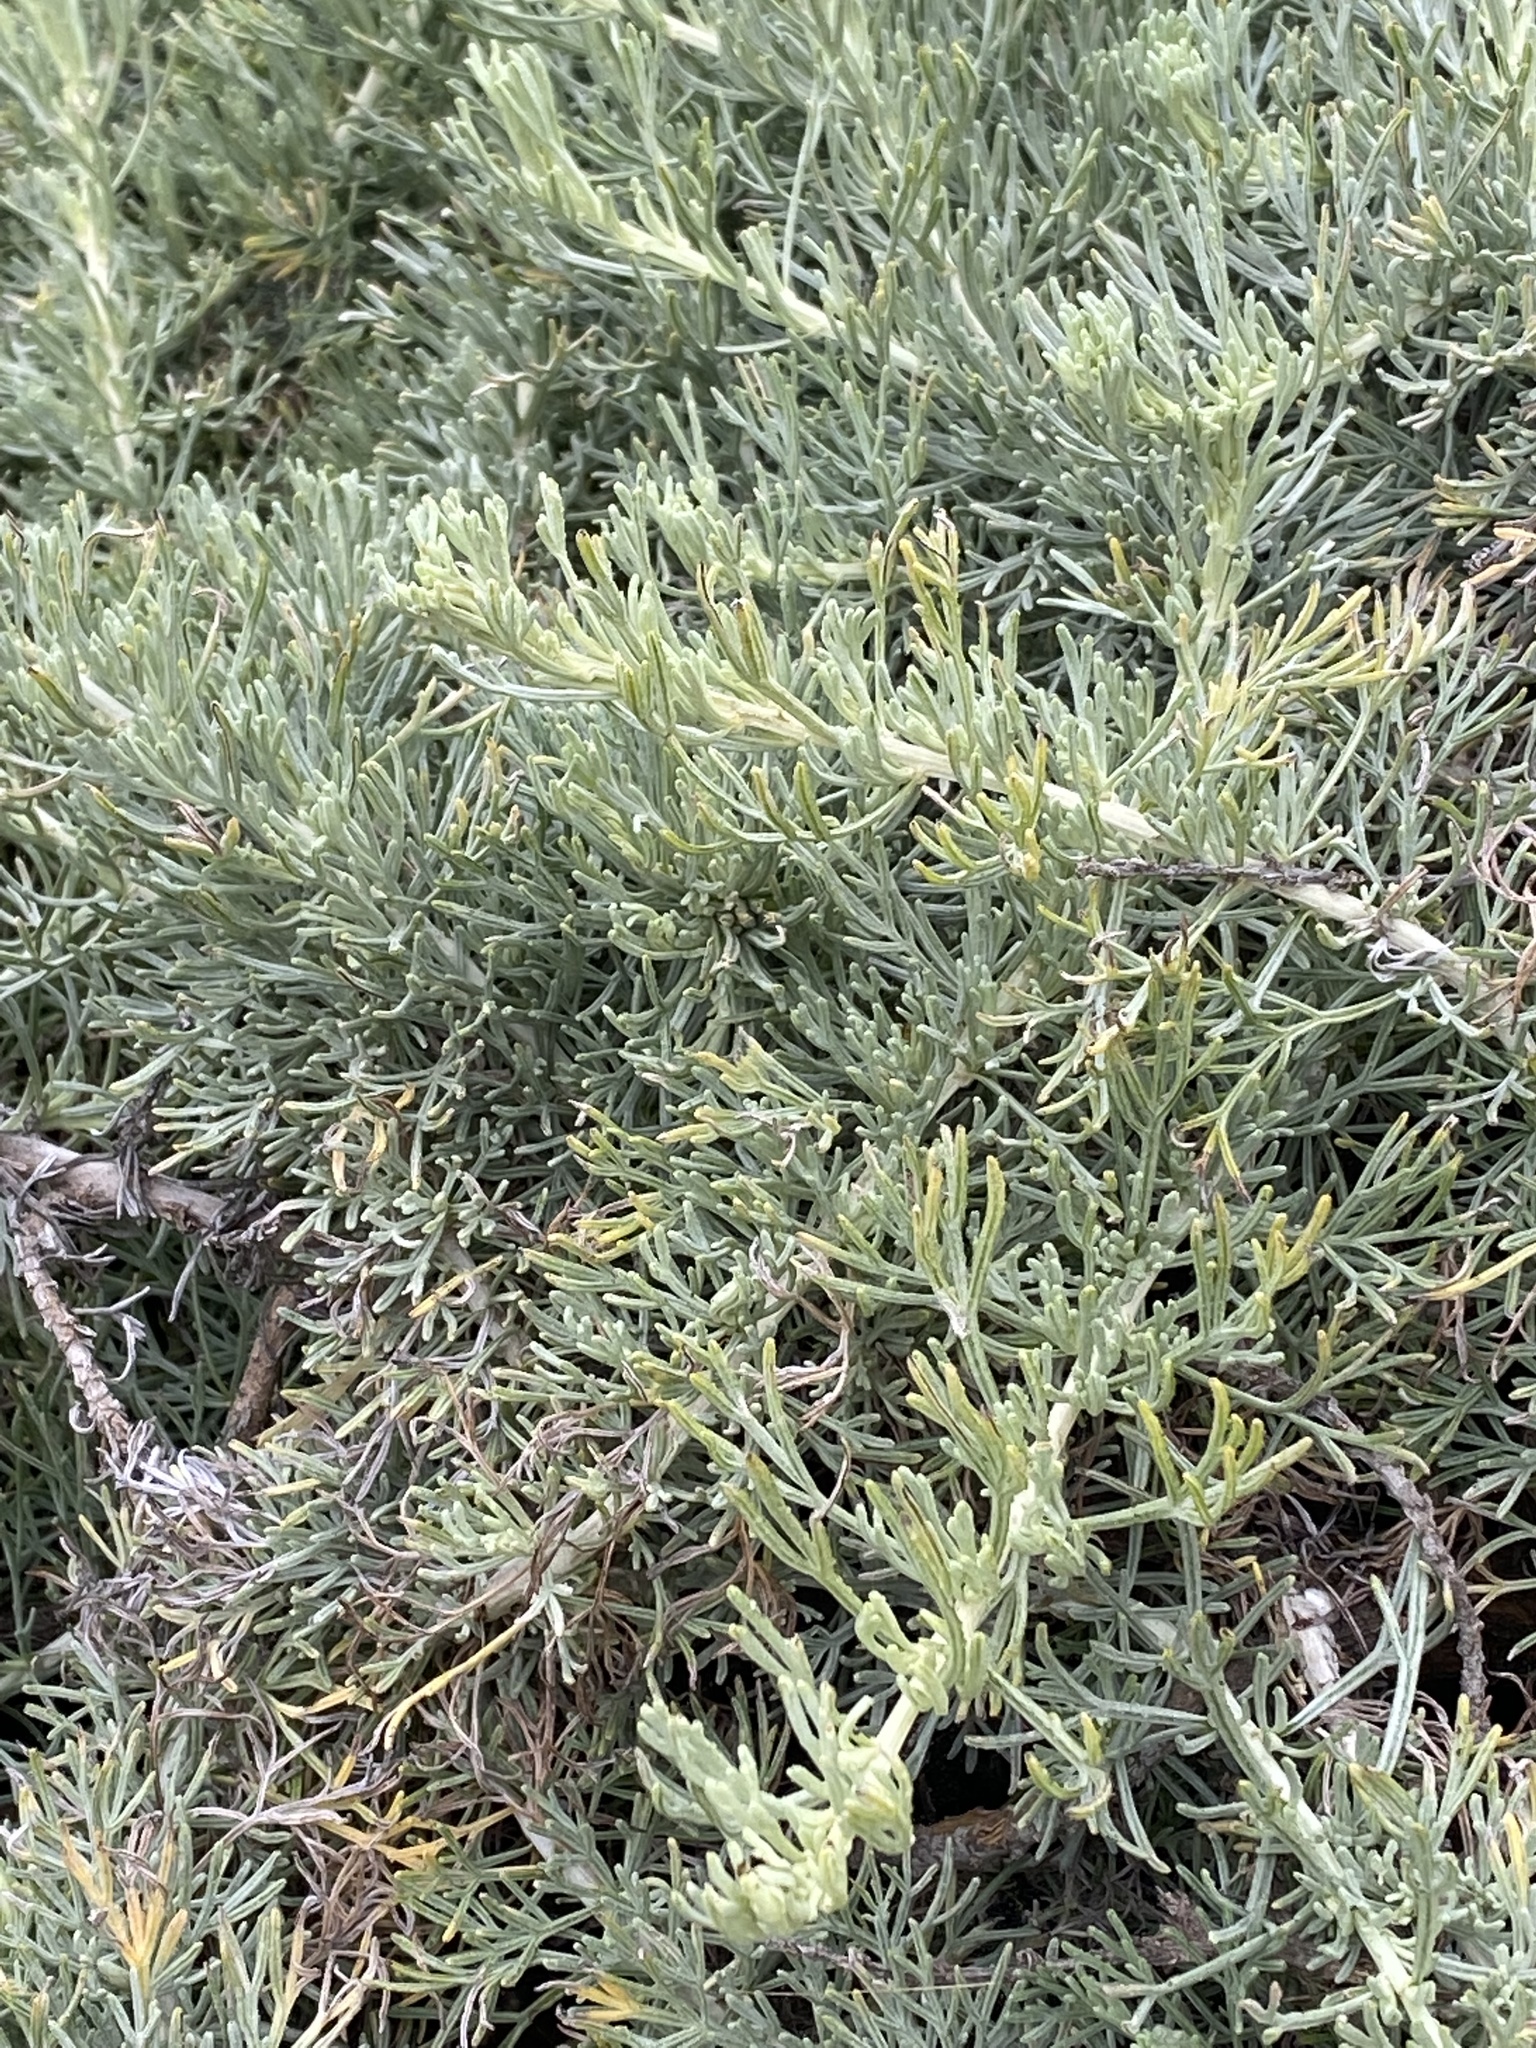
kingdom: Plantae
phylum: Tracheophyta
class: Magnoliopsida
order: Asterales
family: Asteraceae
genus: Artemisia
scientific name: Artemisia californica
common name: California sagebrush
